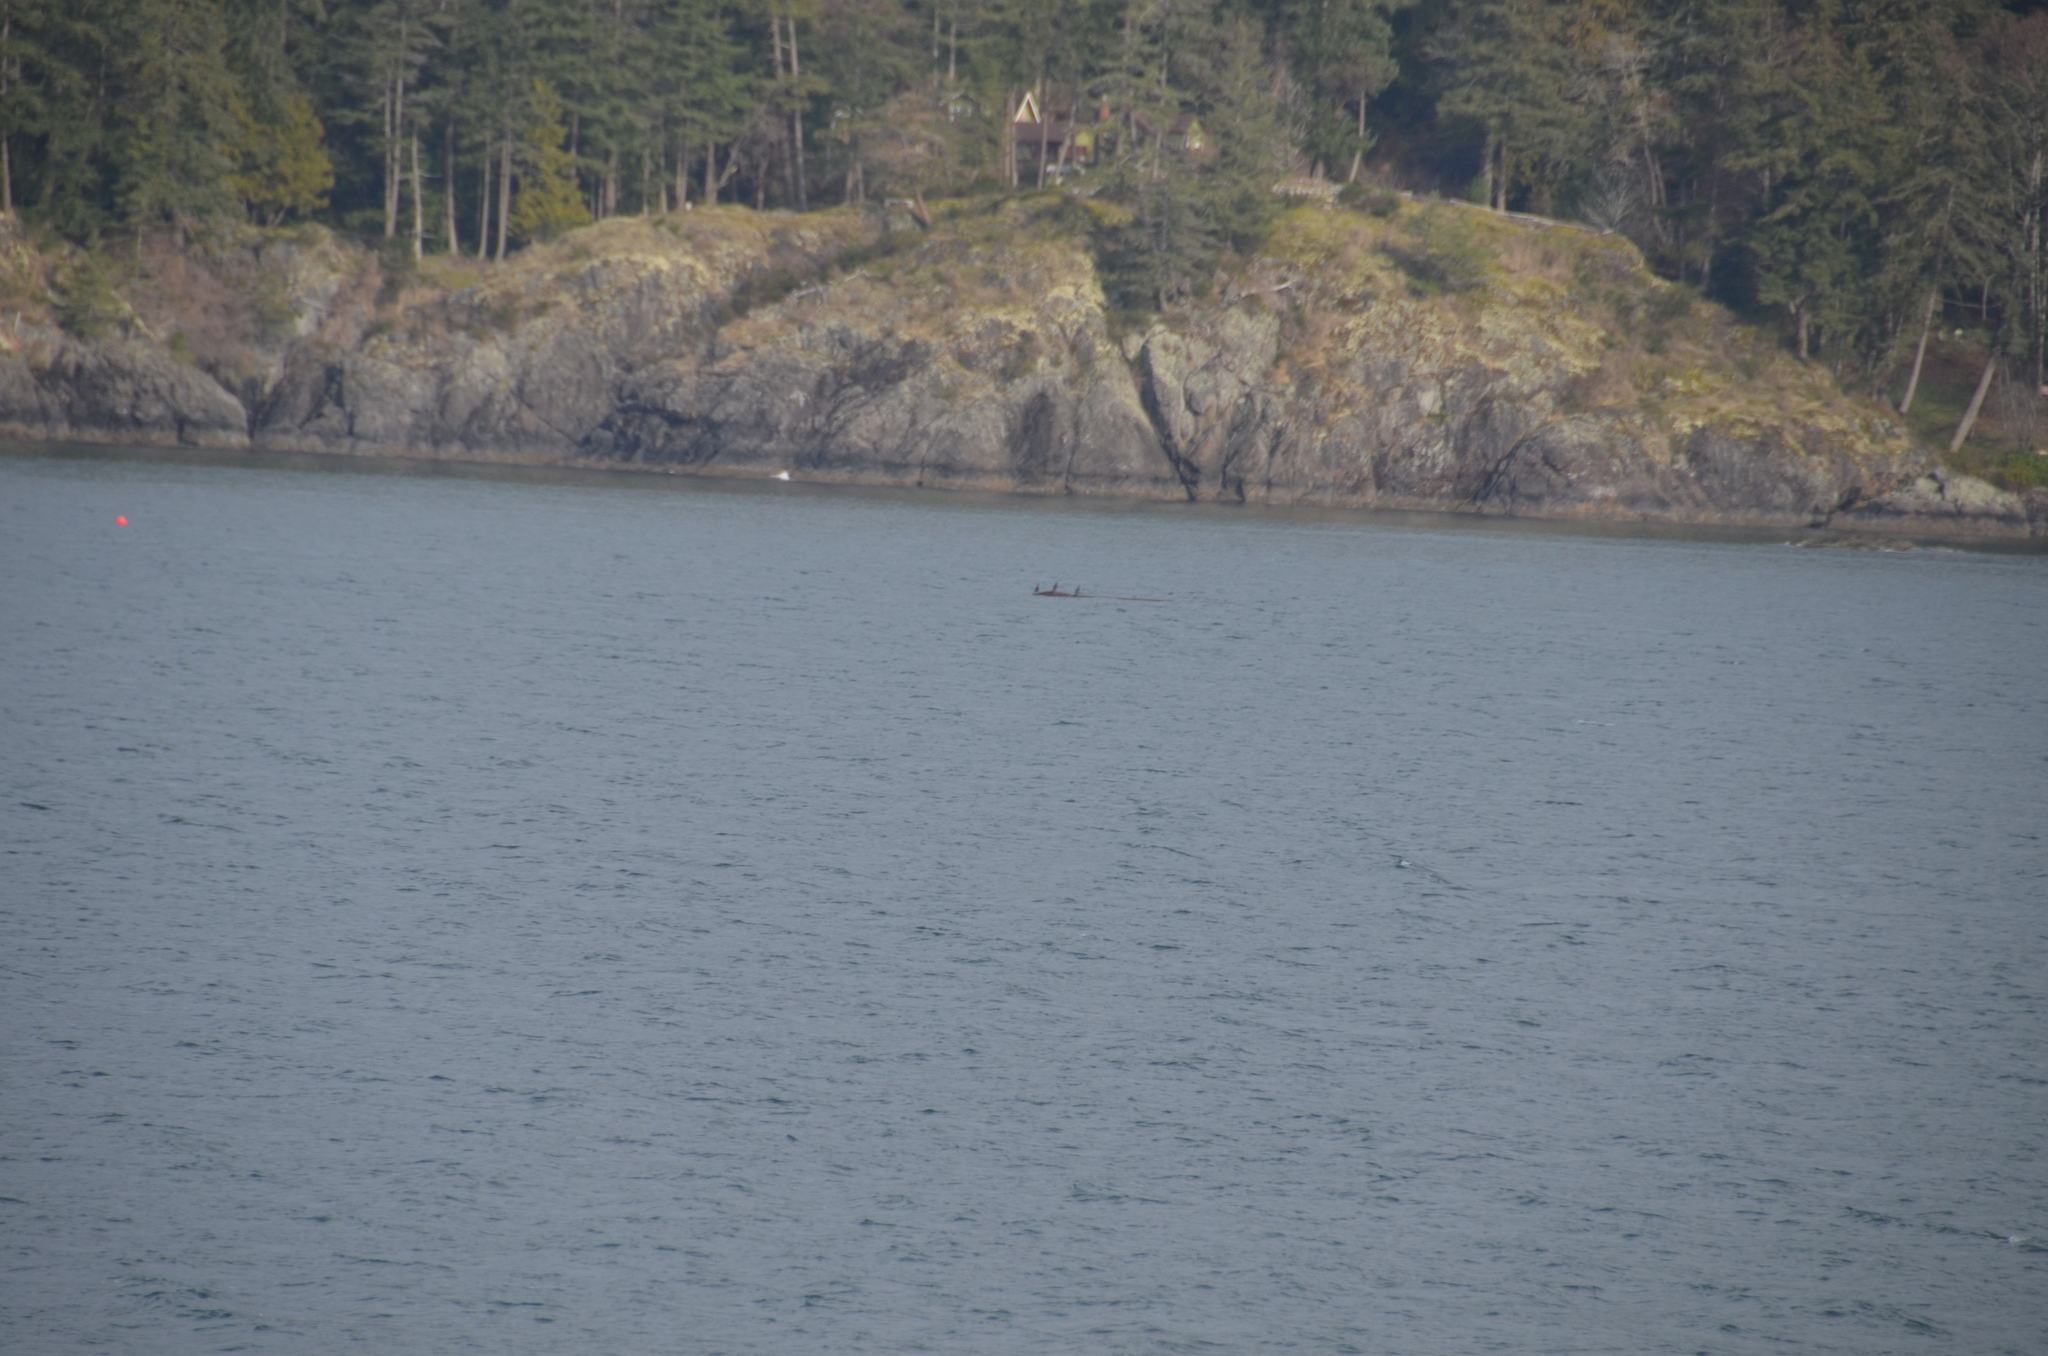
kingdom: Animalia
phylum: Chordata
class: Aves
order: Suliformes
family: Phalacrocoracidae
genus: Phalacrocorax
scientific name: Phalacrocorax auritus
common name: Double-crested cormorant
